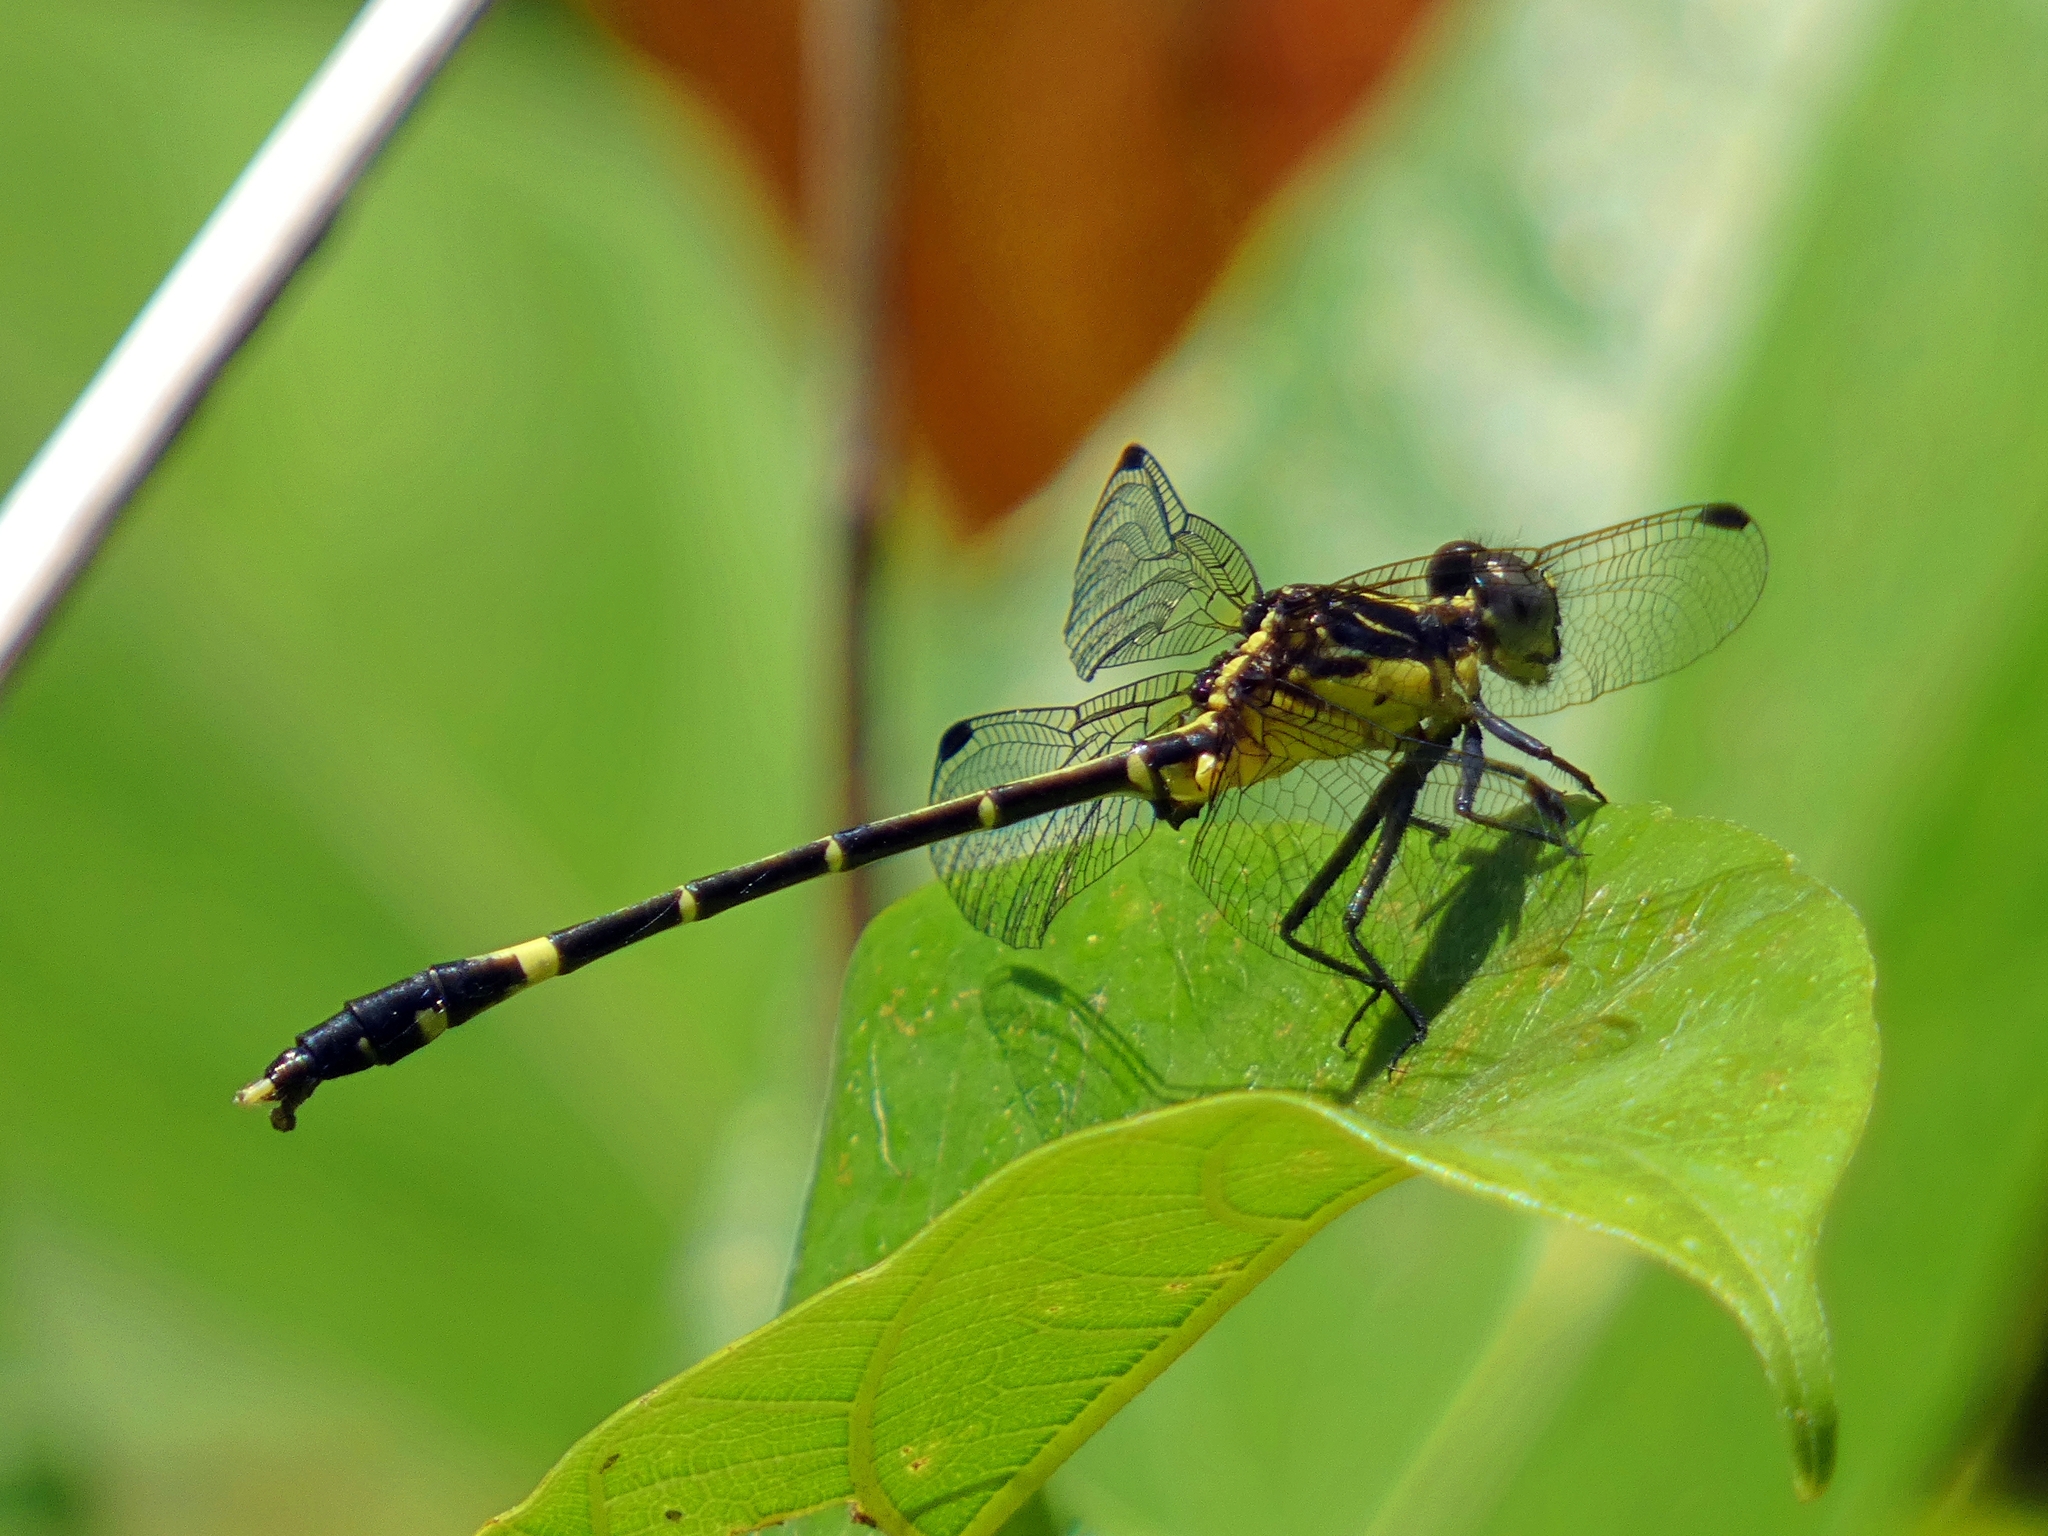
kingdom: Animalia
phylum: Arthropoda
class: Insecta
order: Odonata
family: Gomphidae
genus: Austrogomphus
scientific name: Austrogomphus prasinus
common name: Lemon-tipped hunter
